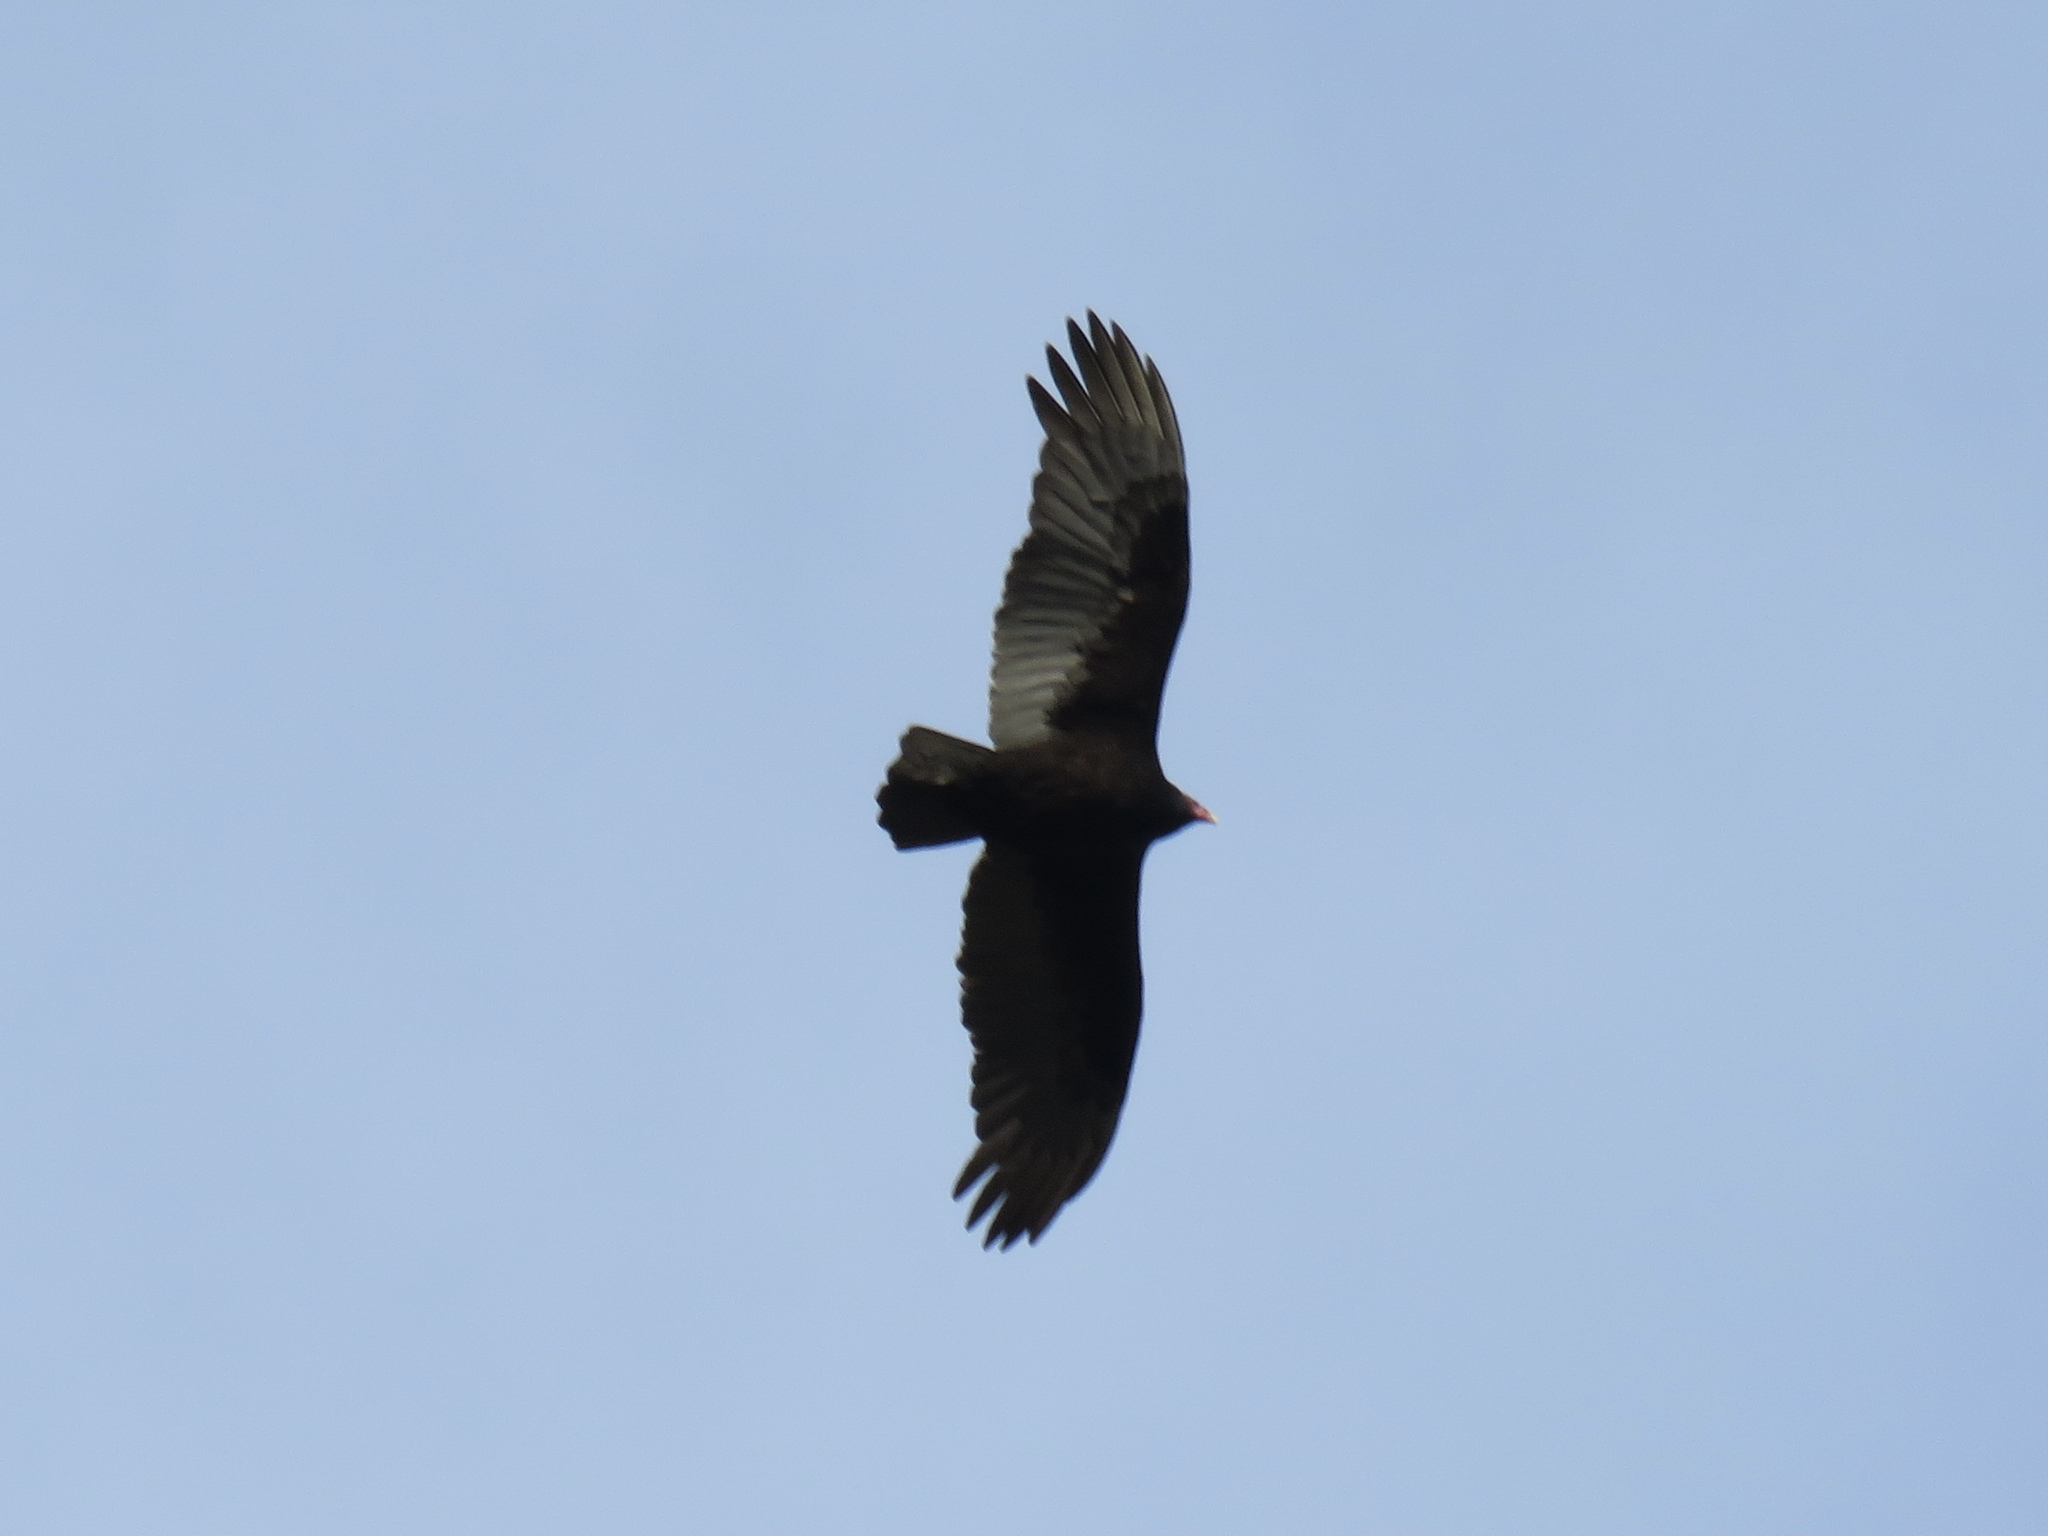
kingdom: Animalia
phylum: Chordata
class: Aves
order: Accipitriformes
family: Cathartidae
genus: Cathartes
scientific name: Cathartes aura
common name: Turkey vulture
